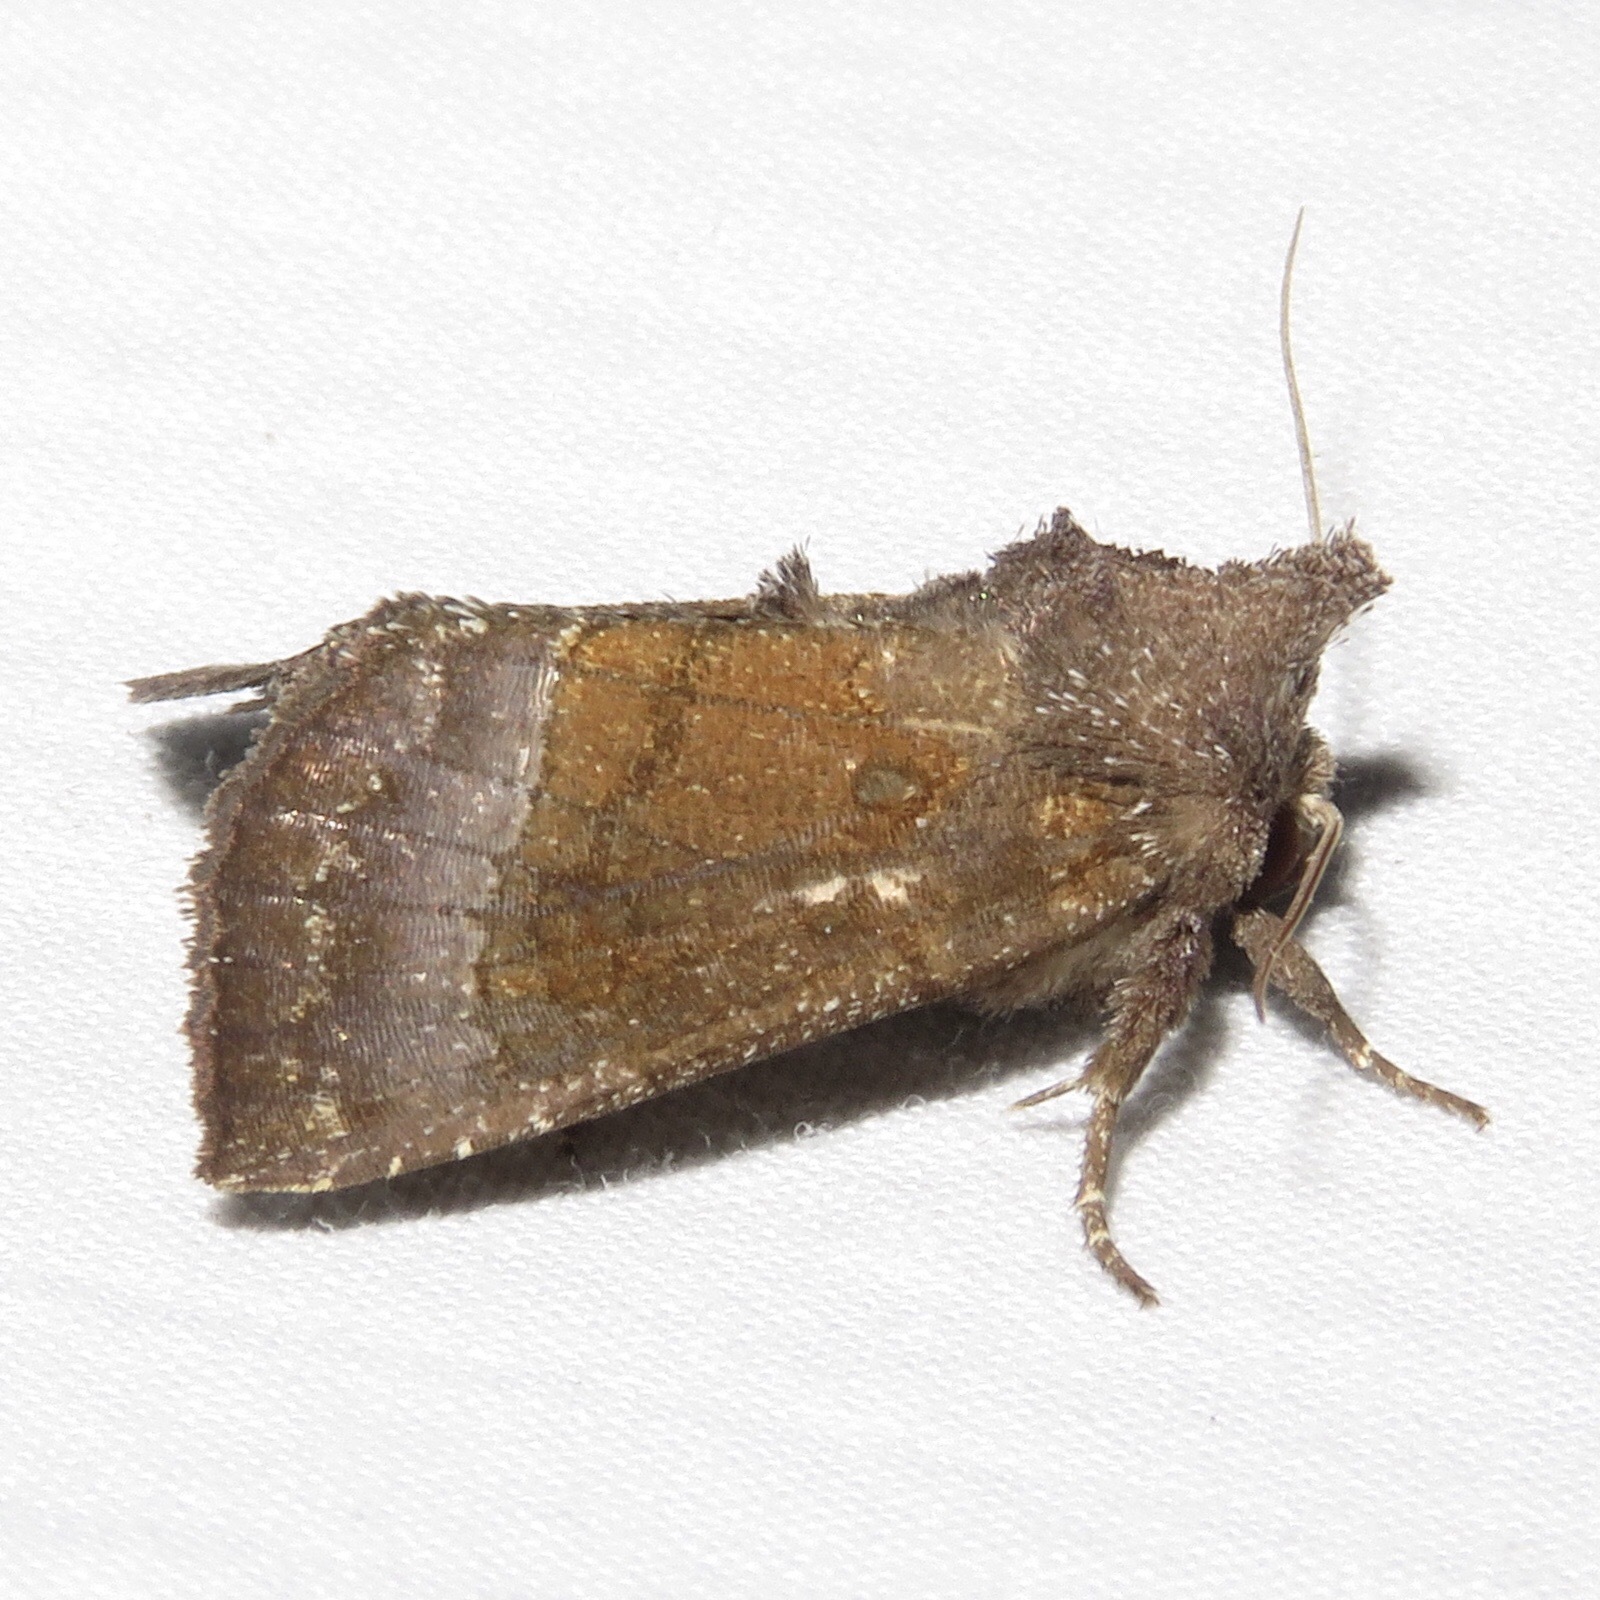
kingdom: Animalia
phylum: Arthropoda
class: Insecta
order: Lepidoptera
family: Noctuidae
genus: Papaipema
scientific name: Papaipema nelita
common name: Coneflower borer moth
